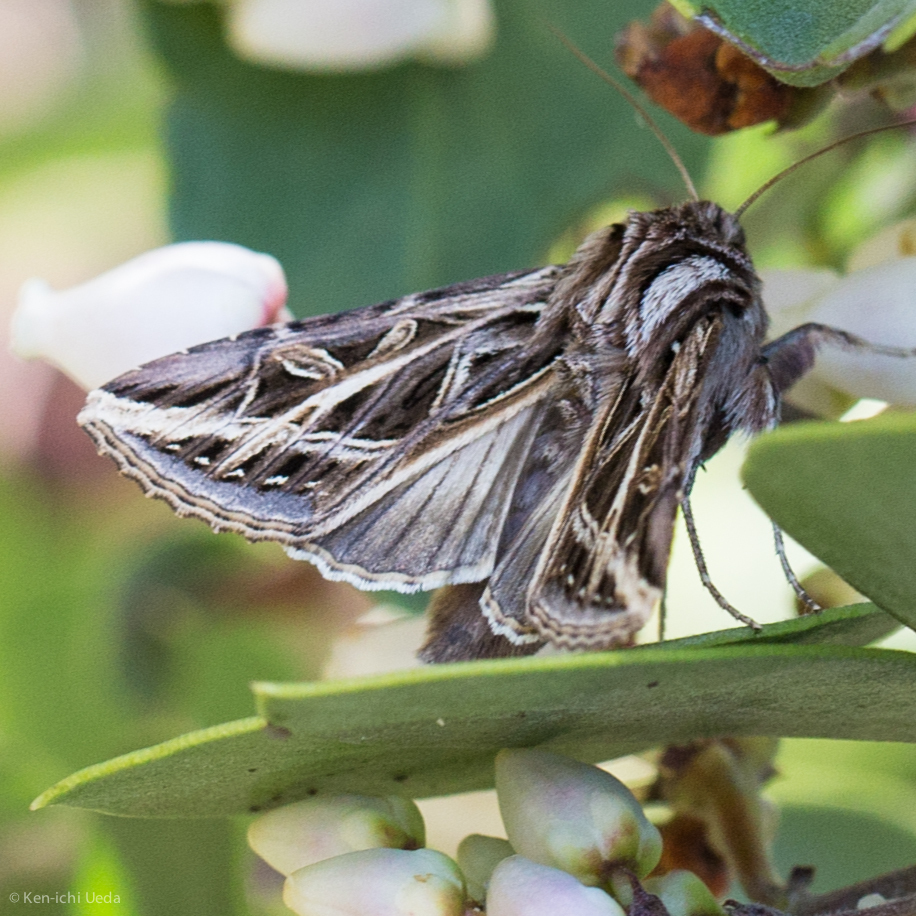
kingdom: Animalia
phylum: Arthropoda
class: Insecta
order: Lepidoptera
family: Noctuidae
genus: Dargida
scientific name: Dargida procinctus
